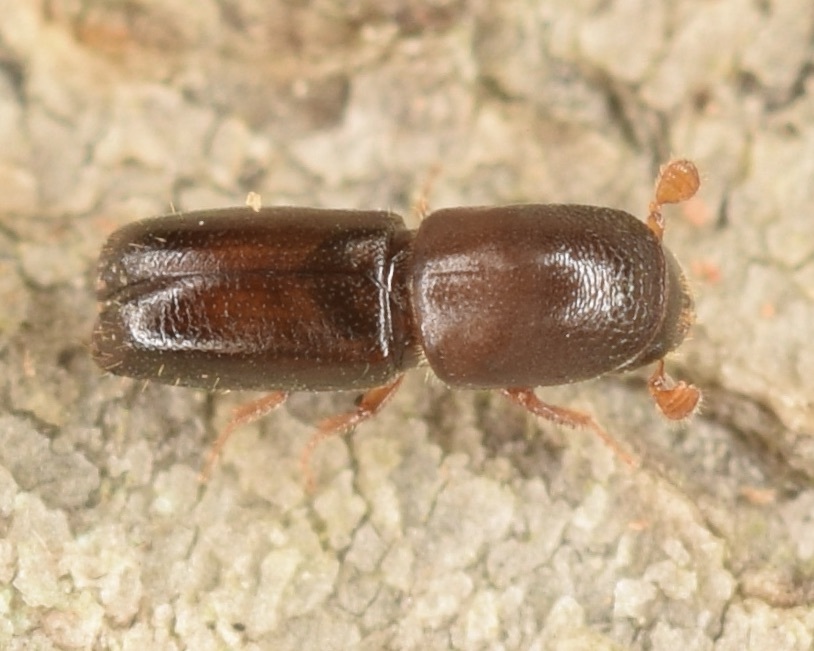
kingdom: Animalia
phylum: Arthropoda
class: Insecta
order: Coleoptera
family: Curculionidae
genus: Monarthrum
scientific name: Monarthrum mali
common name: Bark beetle
